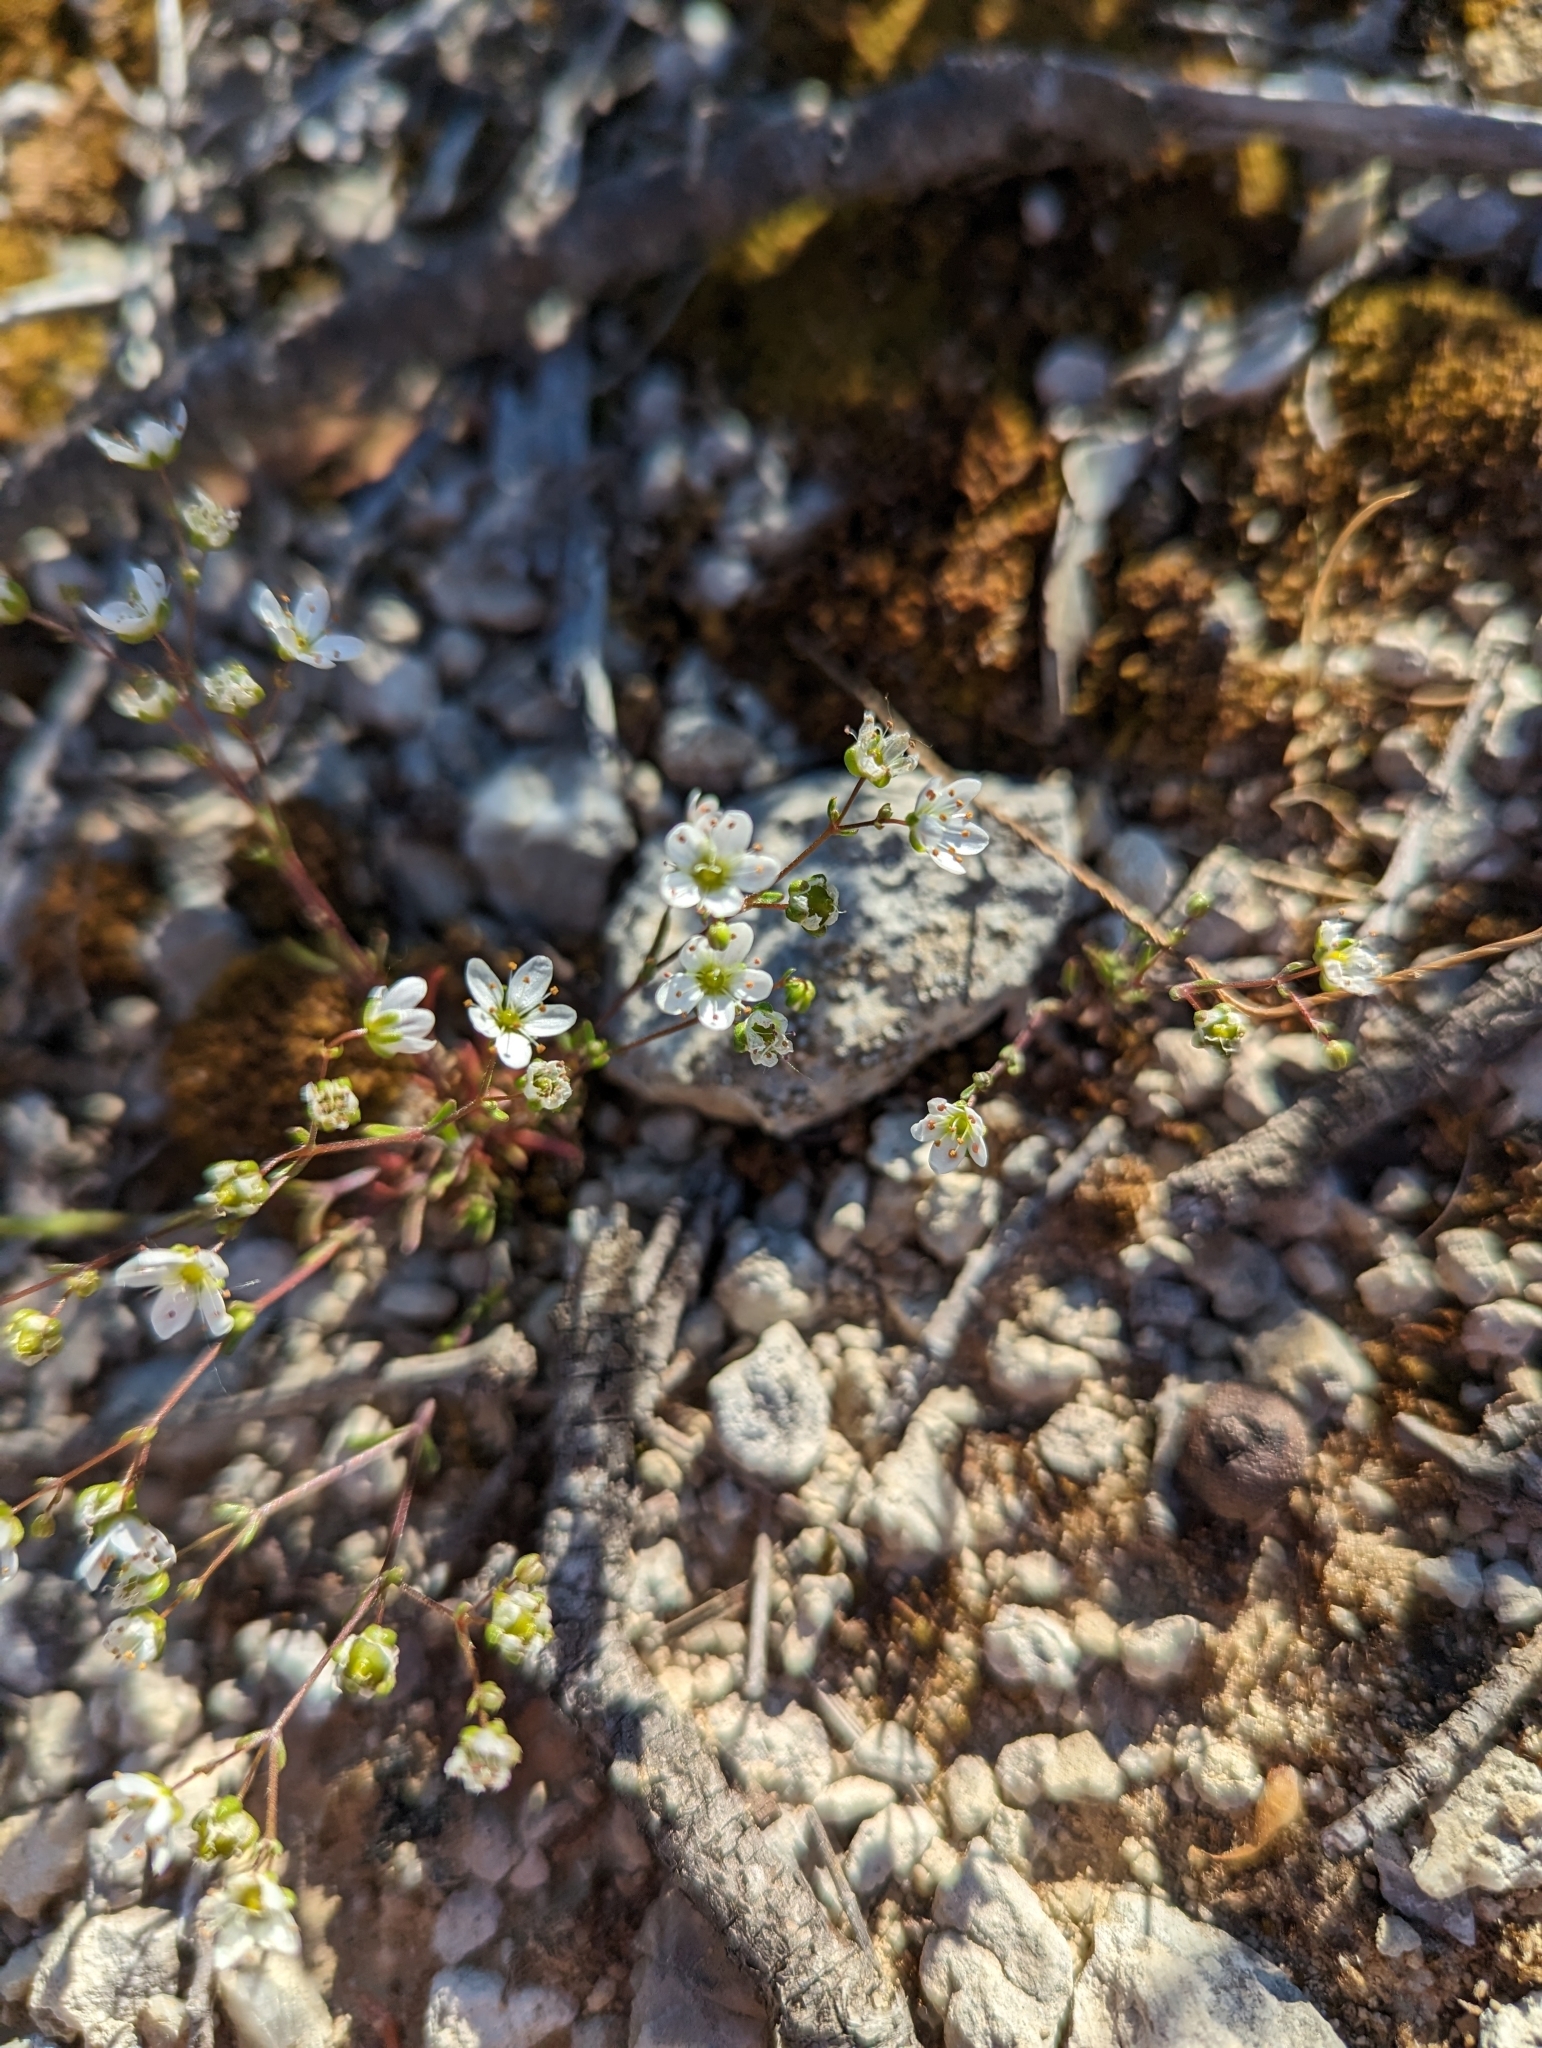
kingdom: Plantae
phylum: Tracheophyta
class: Magnoliopsida
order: Caryophyllales
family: Caryophyllaceae
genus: Arenaria
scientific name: Arenaria controversa
